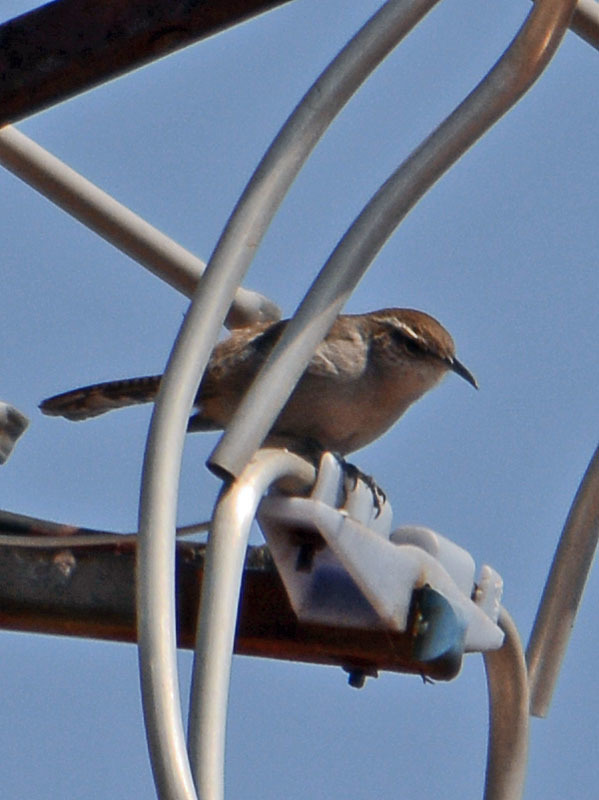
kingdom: Animalia
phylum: Chordata
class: Aves
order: Passeriformes
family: Troglodytidae
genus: Thryomanes
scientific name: Thryomanes bewickii
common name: Bewick's wren
